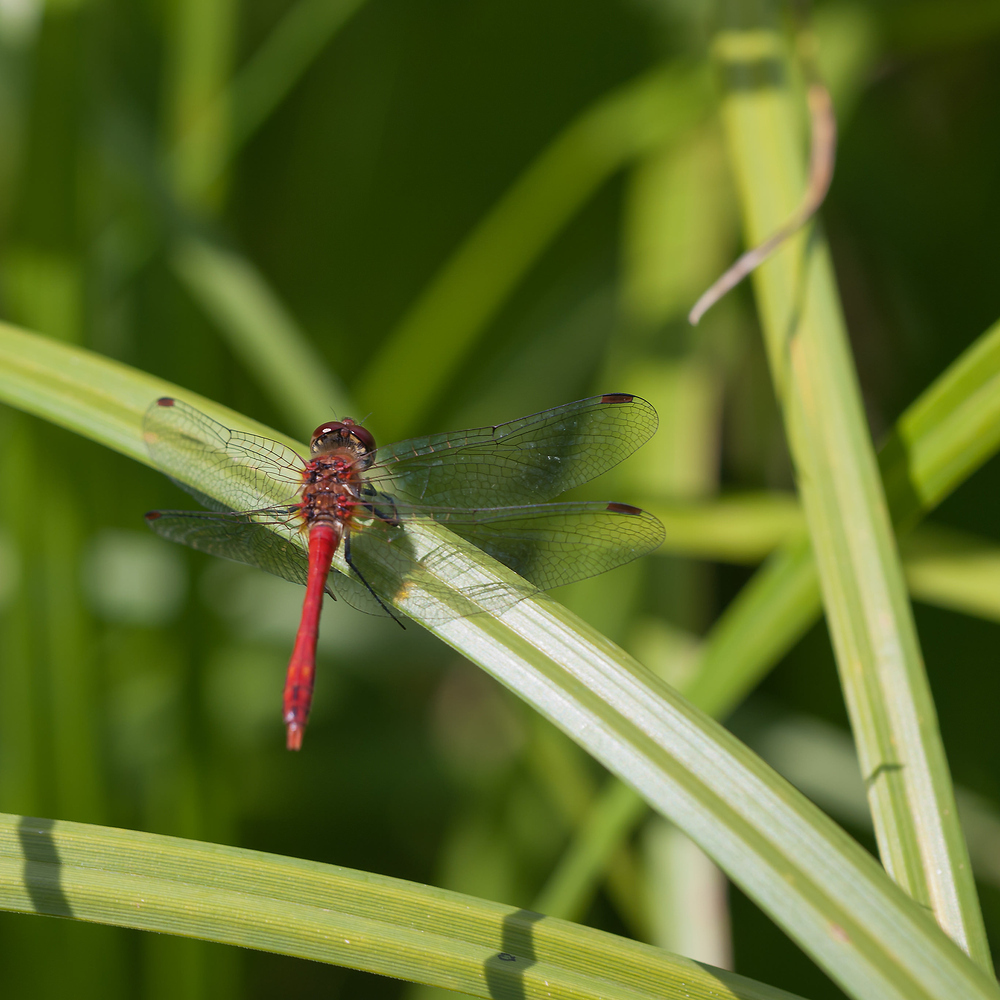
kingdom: Animalia
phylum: Arthropoda
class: Insecta
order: Odonata
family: Libellulidae
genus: Sympetrum
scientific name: Sympetrum sanguineum
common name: Ruddy darter
